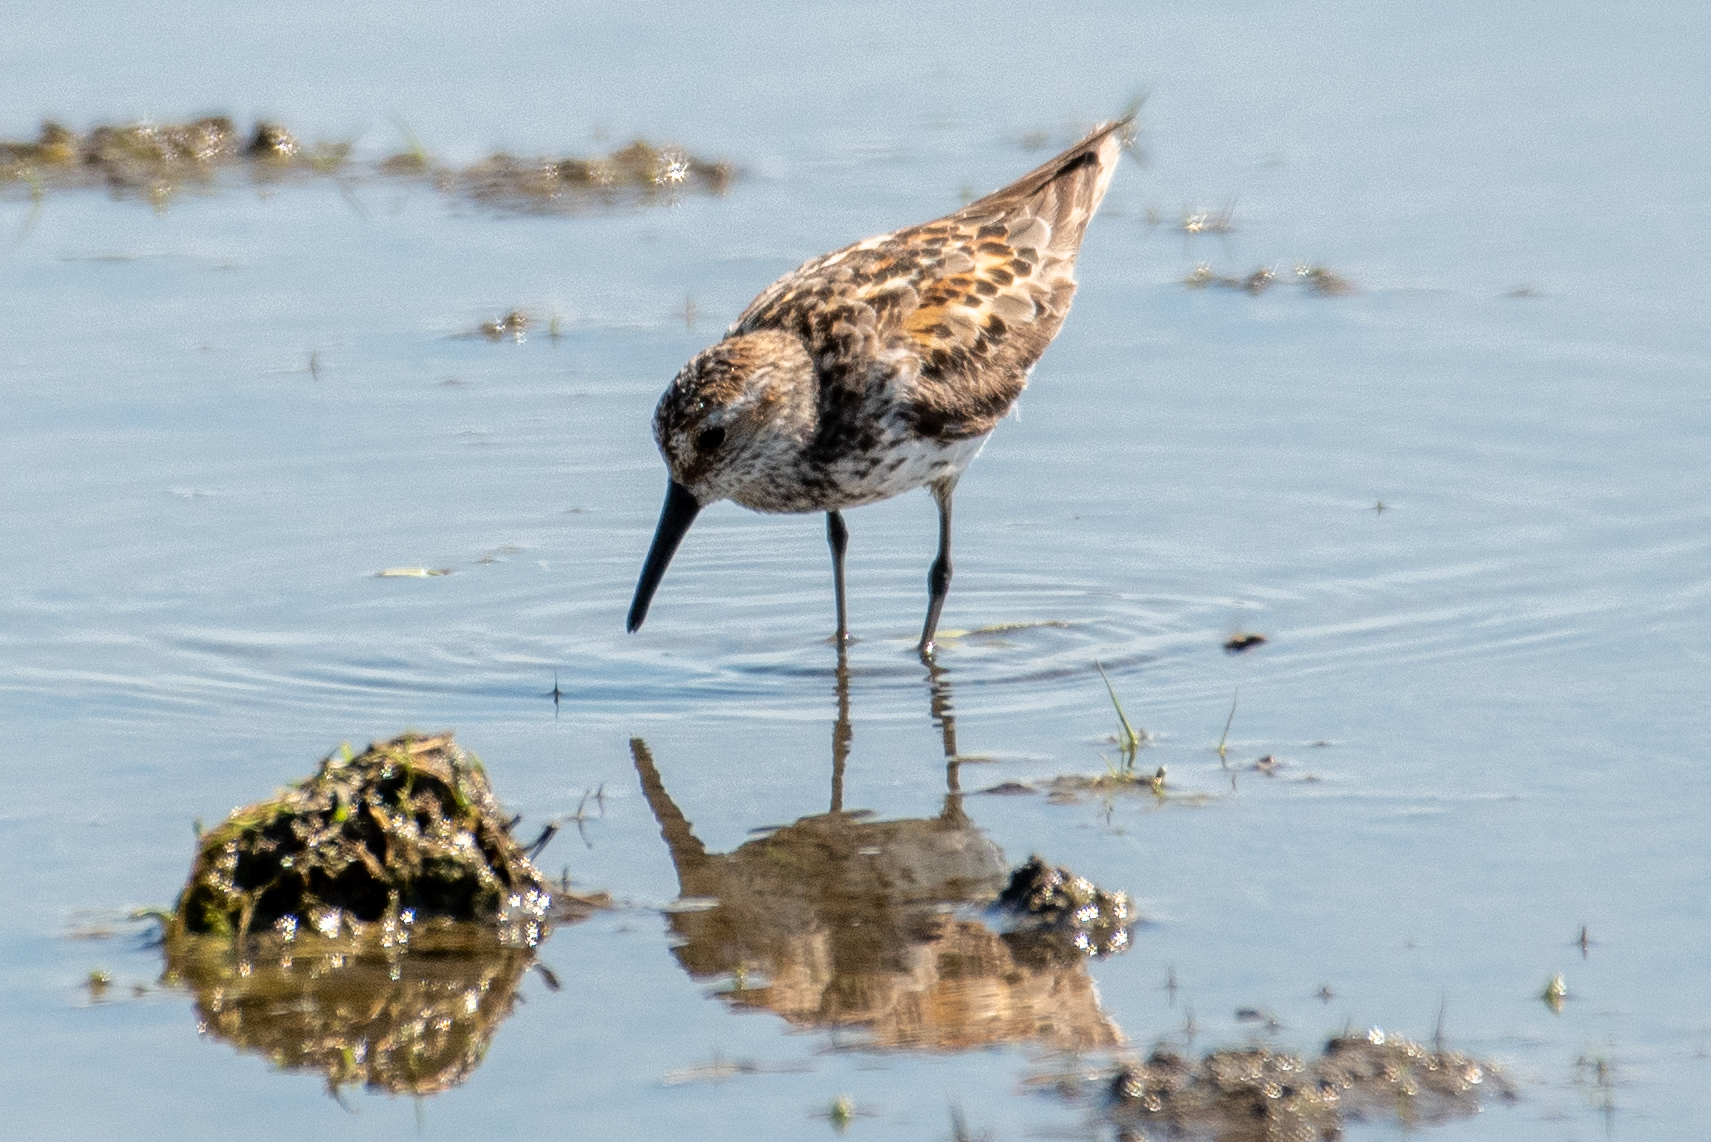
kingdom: Animalia
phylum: Chordata
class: Aves
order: Charadriiformes
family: Scolopacidae
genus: Calidris
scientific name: Calidris mauri
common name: Western sandpiper
